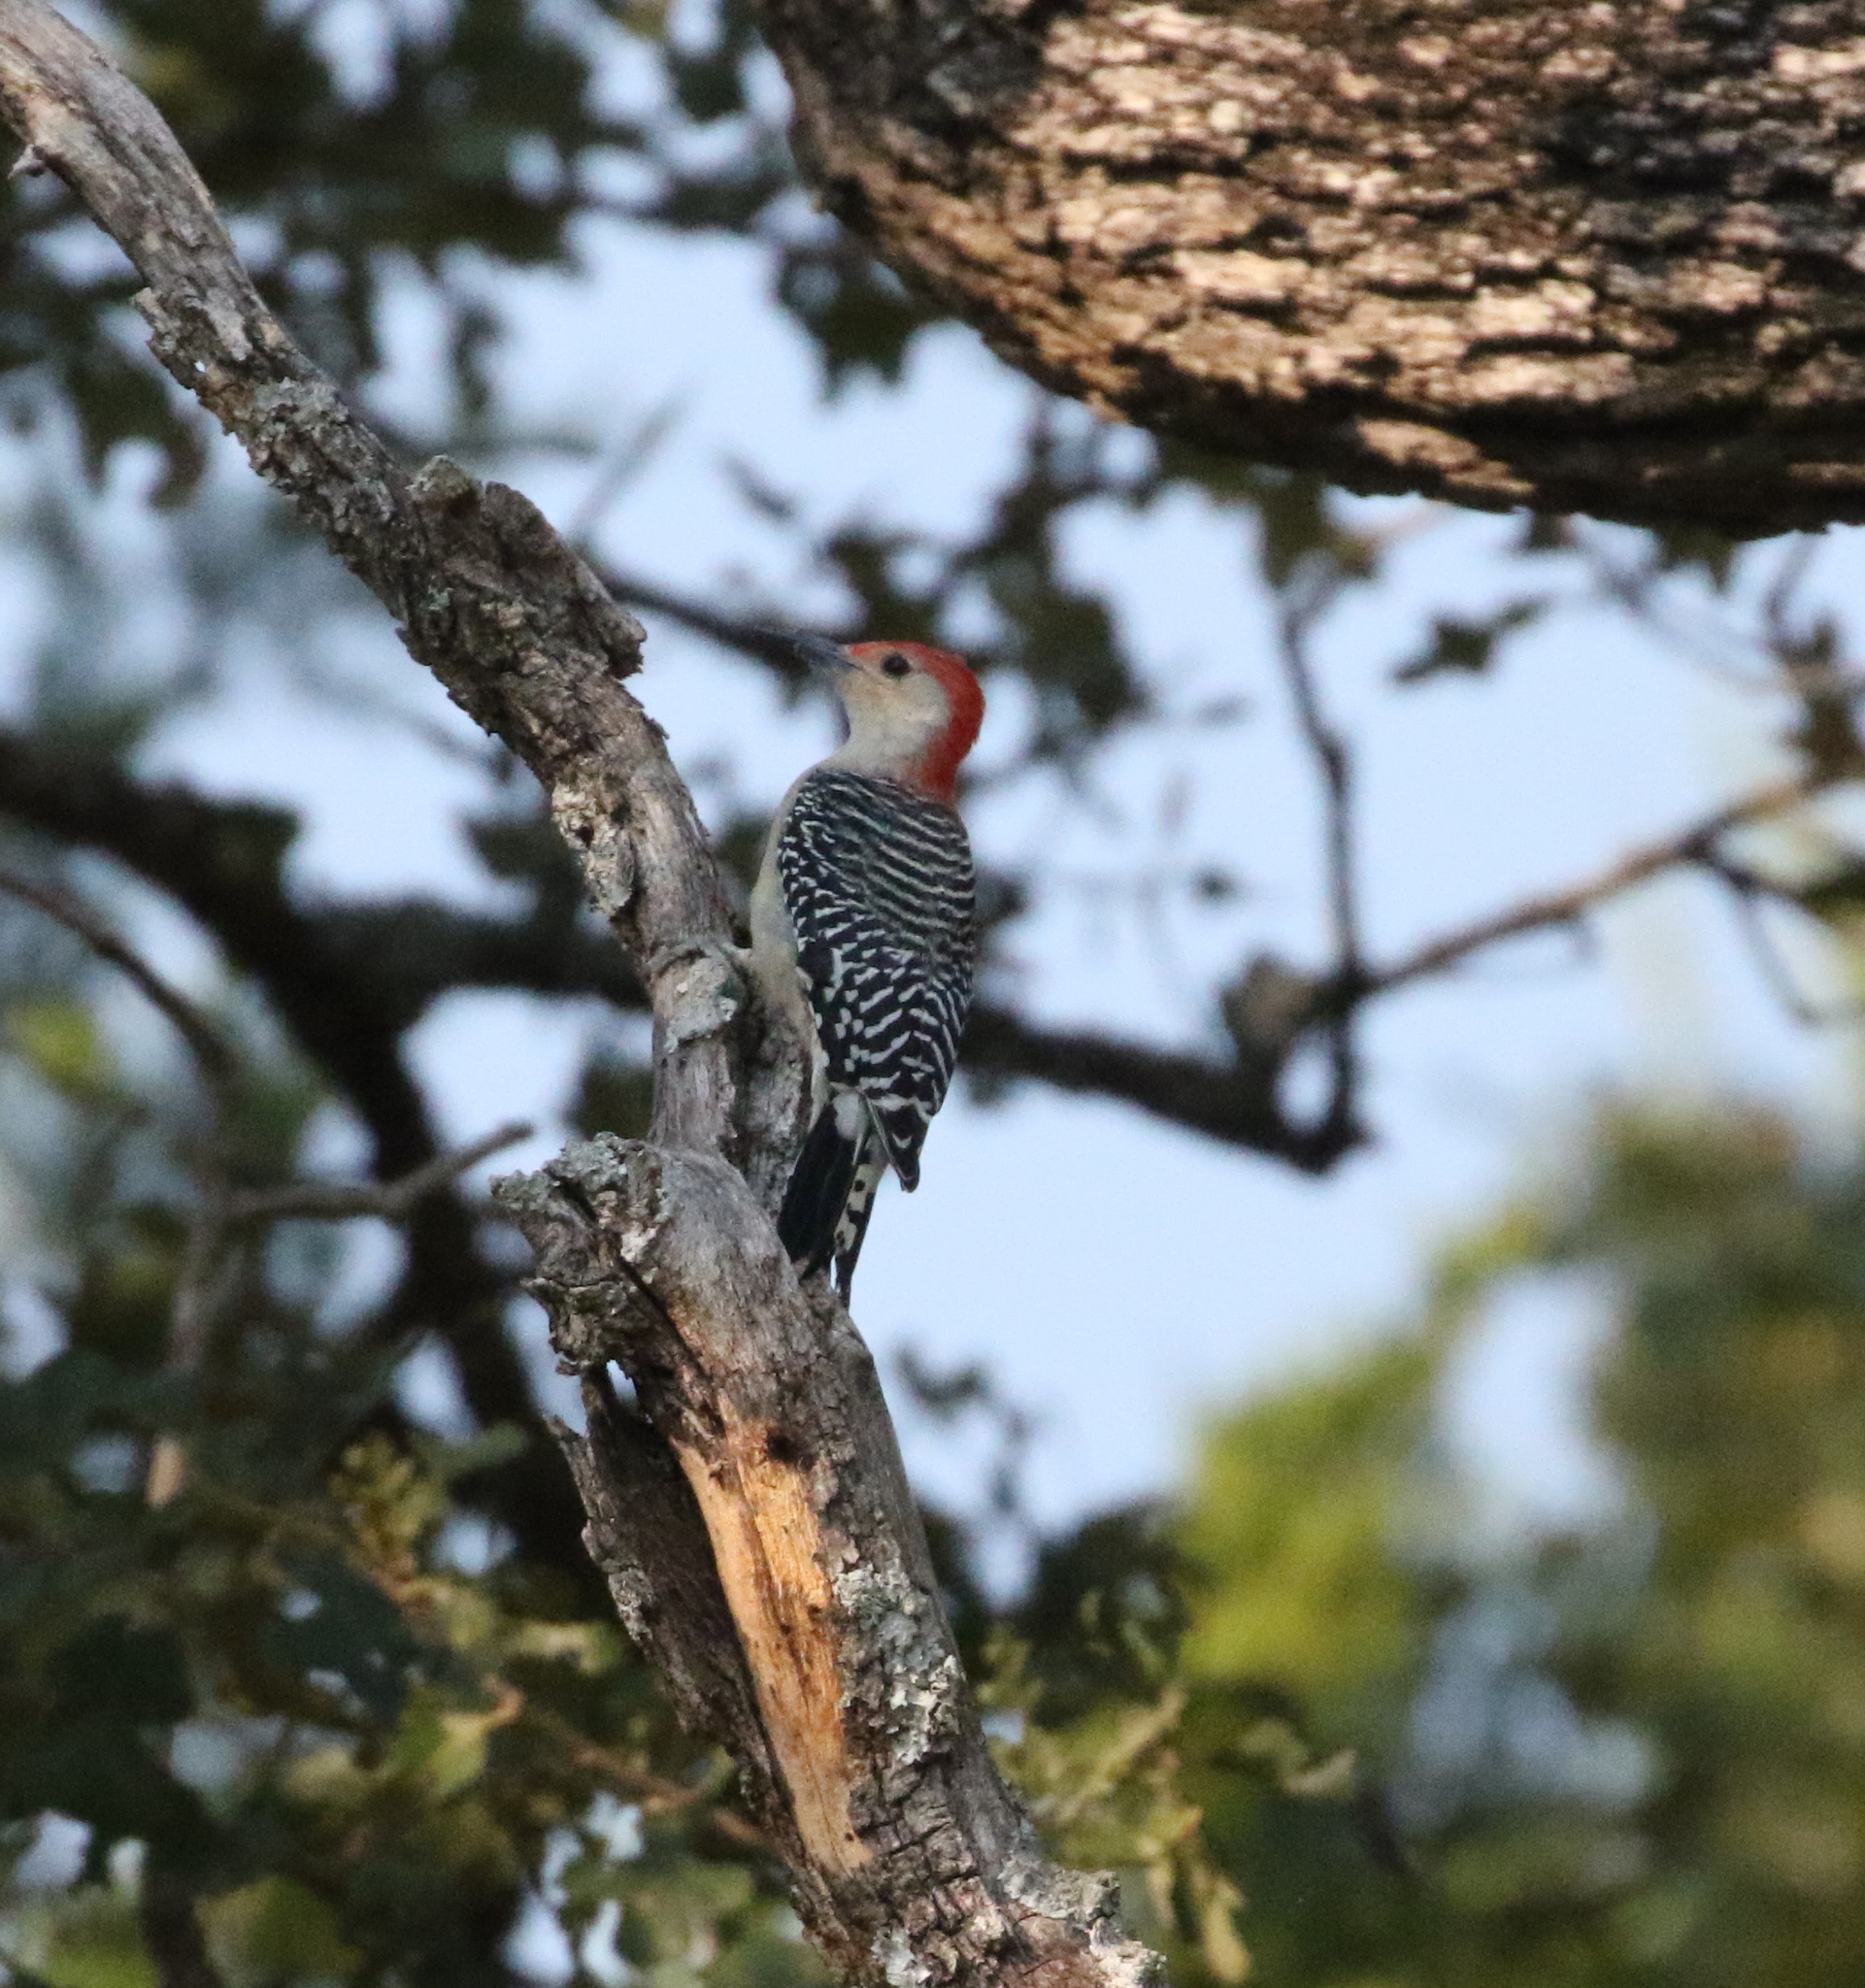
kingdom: Animalia
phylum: Chordata
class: Aves
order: Piciformes
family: Picidae
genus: Melanerpes
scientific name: Melanerpes carolinus
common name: Red-bellied woodpecker
